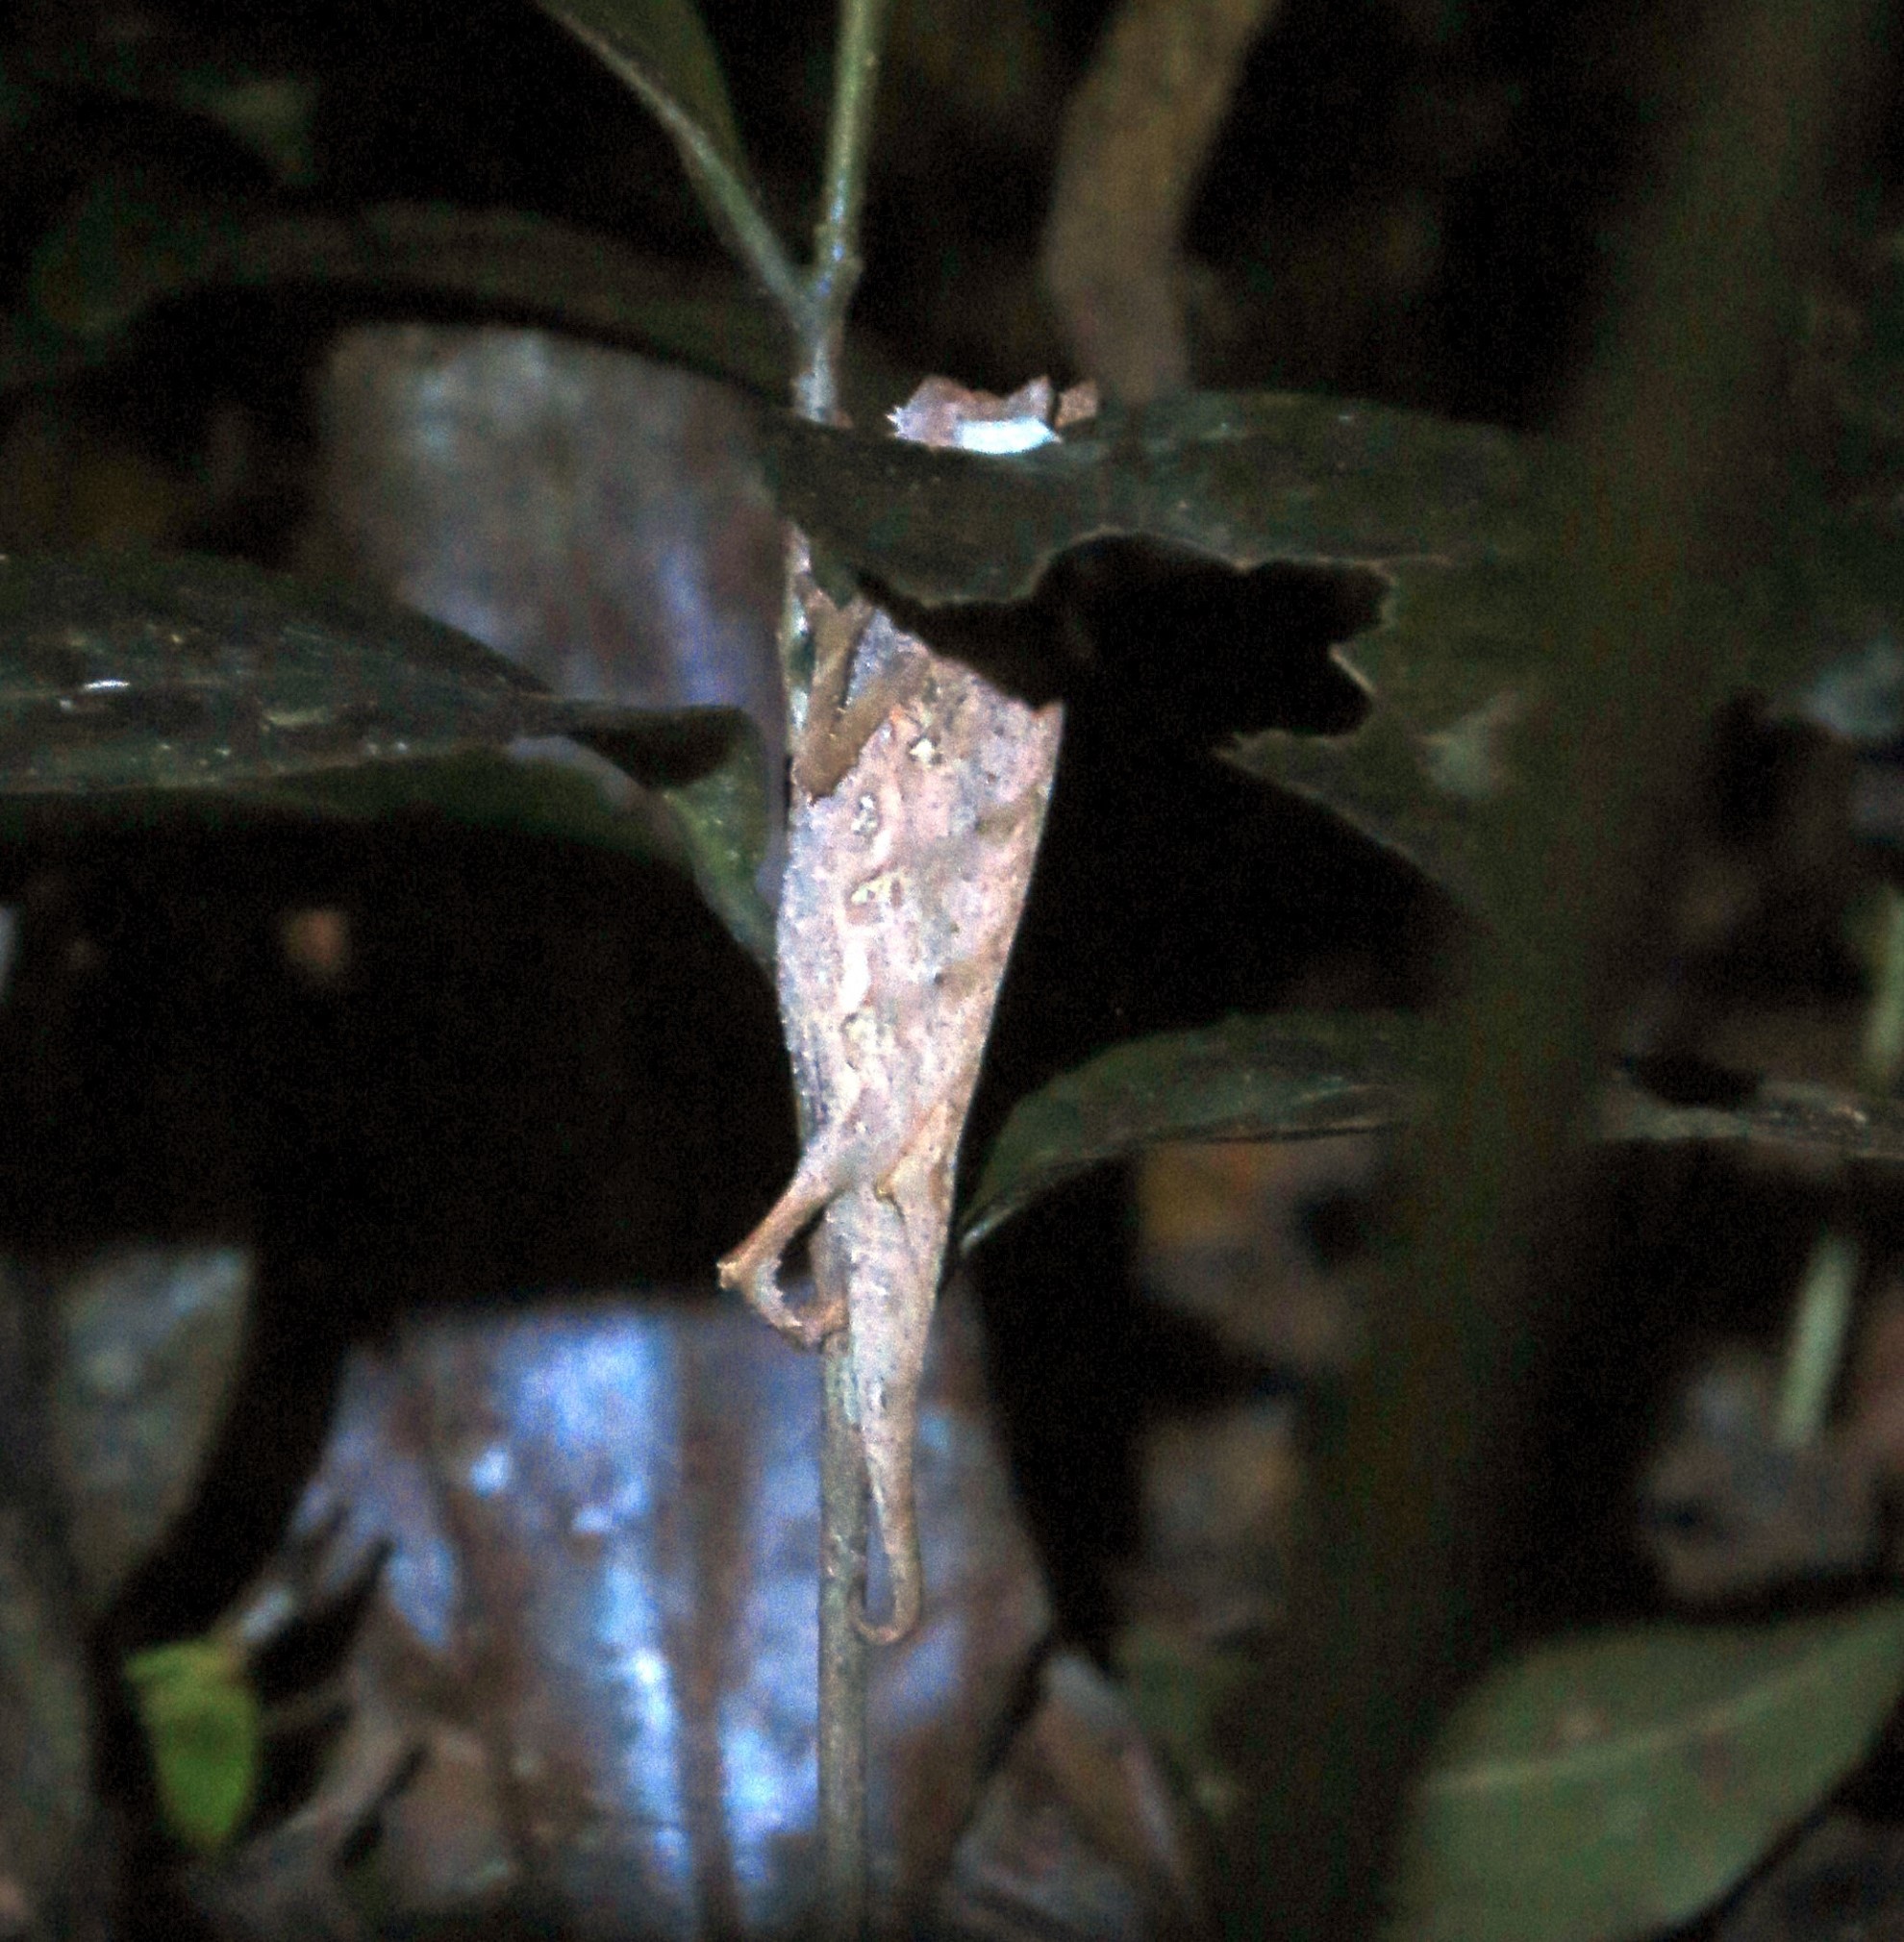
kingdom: Animalia
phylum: Chordata
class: Squamata
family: Chamaeleonidae
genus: Brookesia
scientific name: Brookesia superciliaris
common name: Brown leaf chameleon
